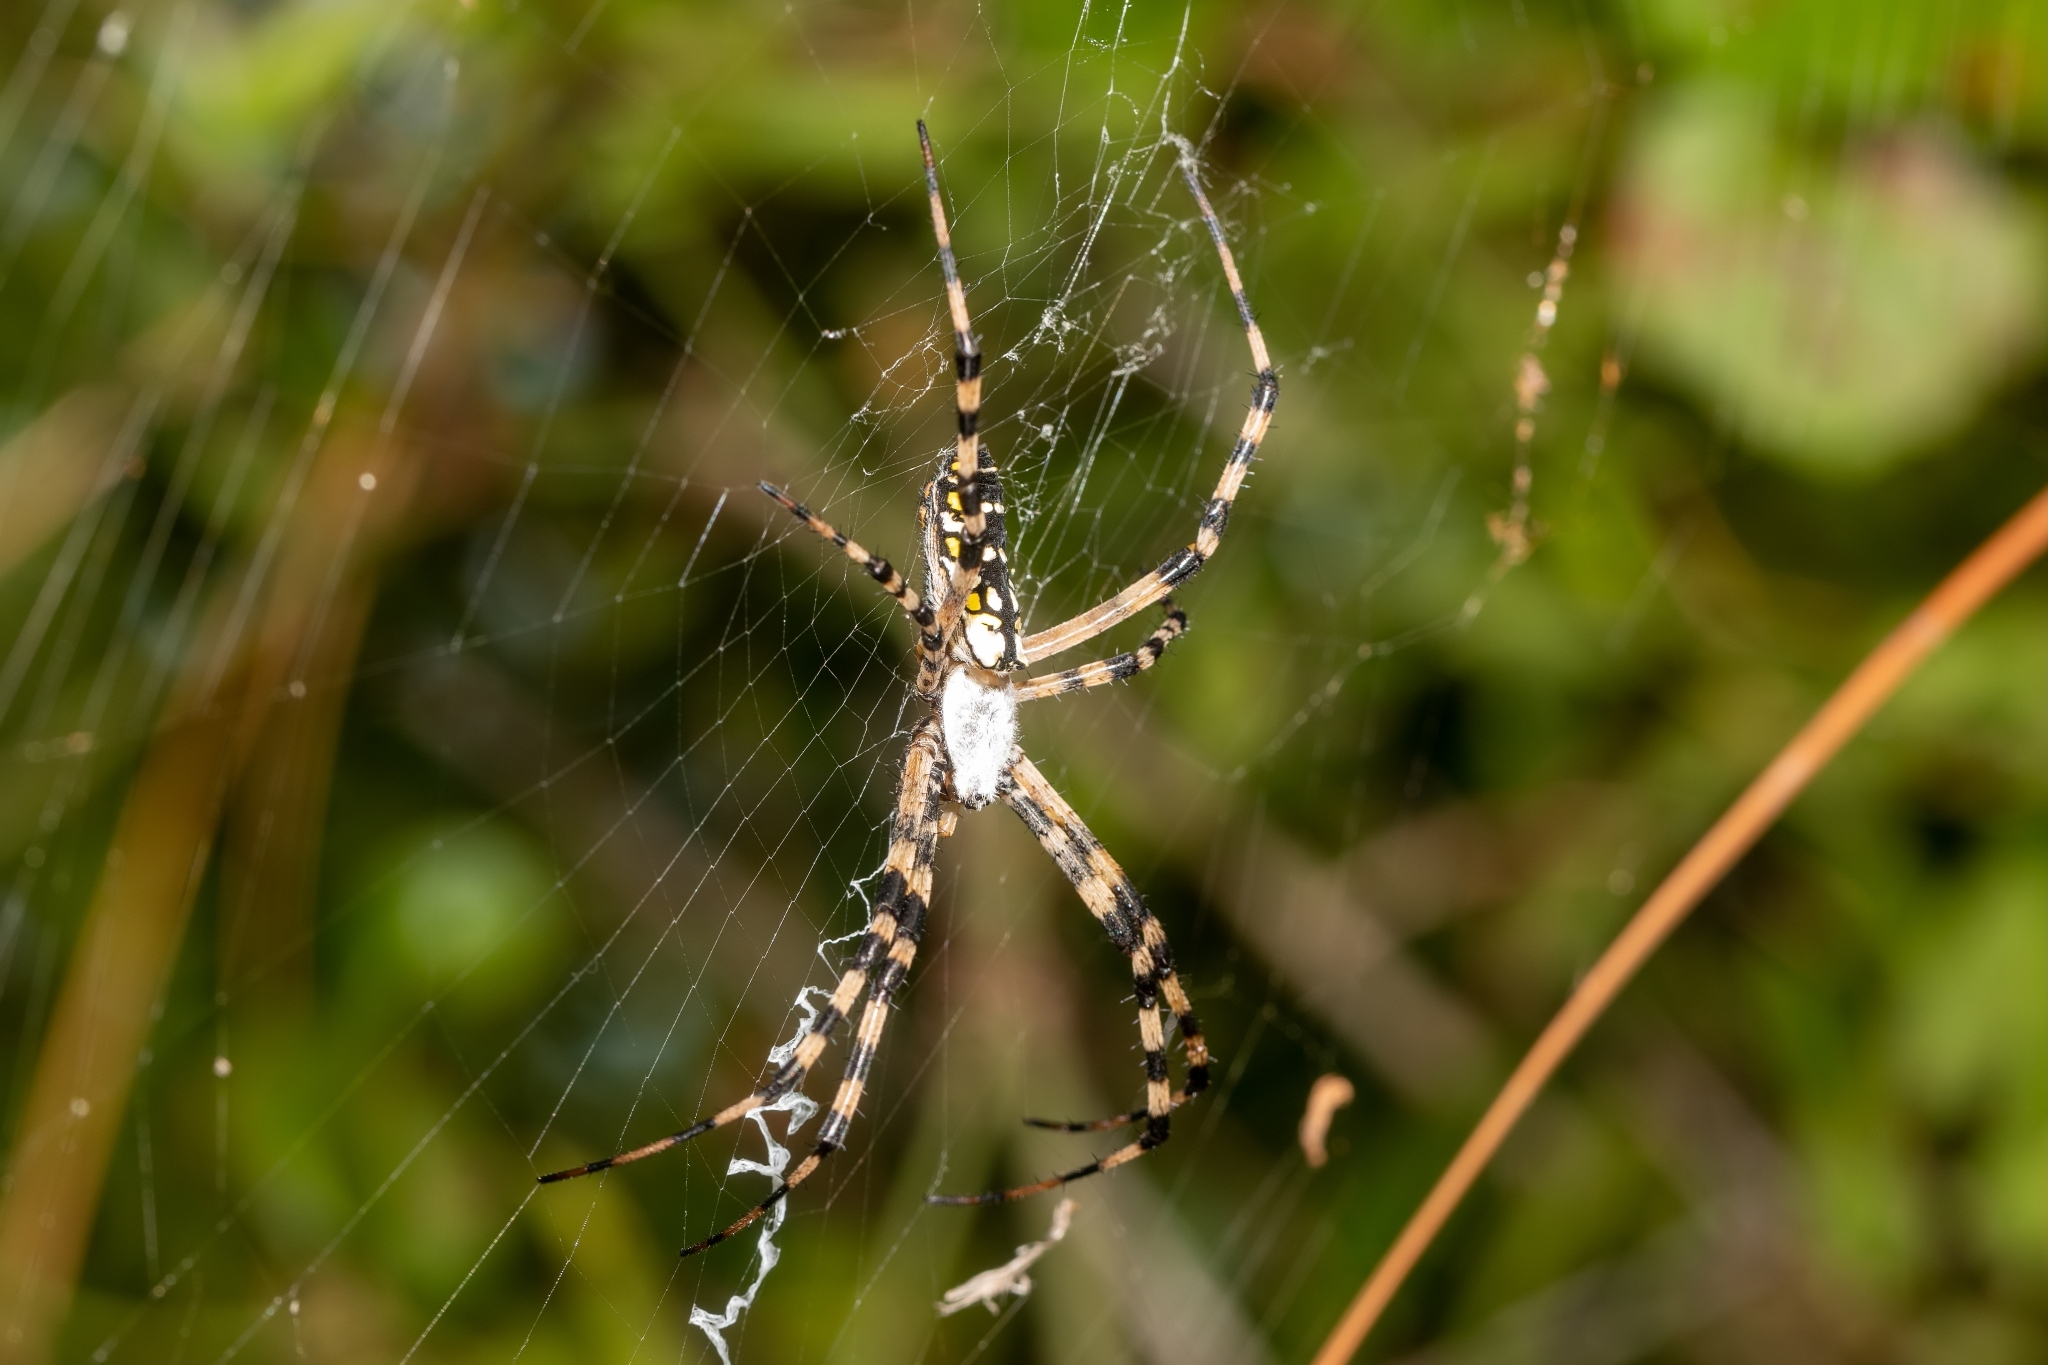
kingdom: Animalia
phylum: Arthropoda
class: Arachnida
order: Araneae
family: Araneidae
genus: Argiope
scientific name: Argiope aurantia
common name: Orb weavers
